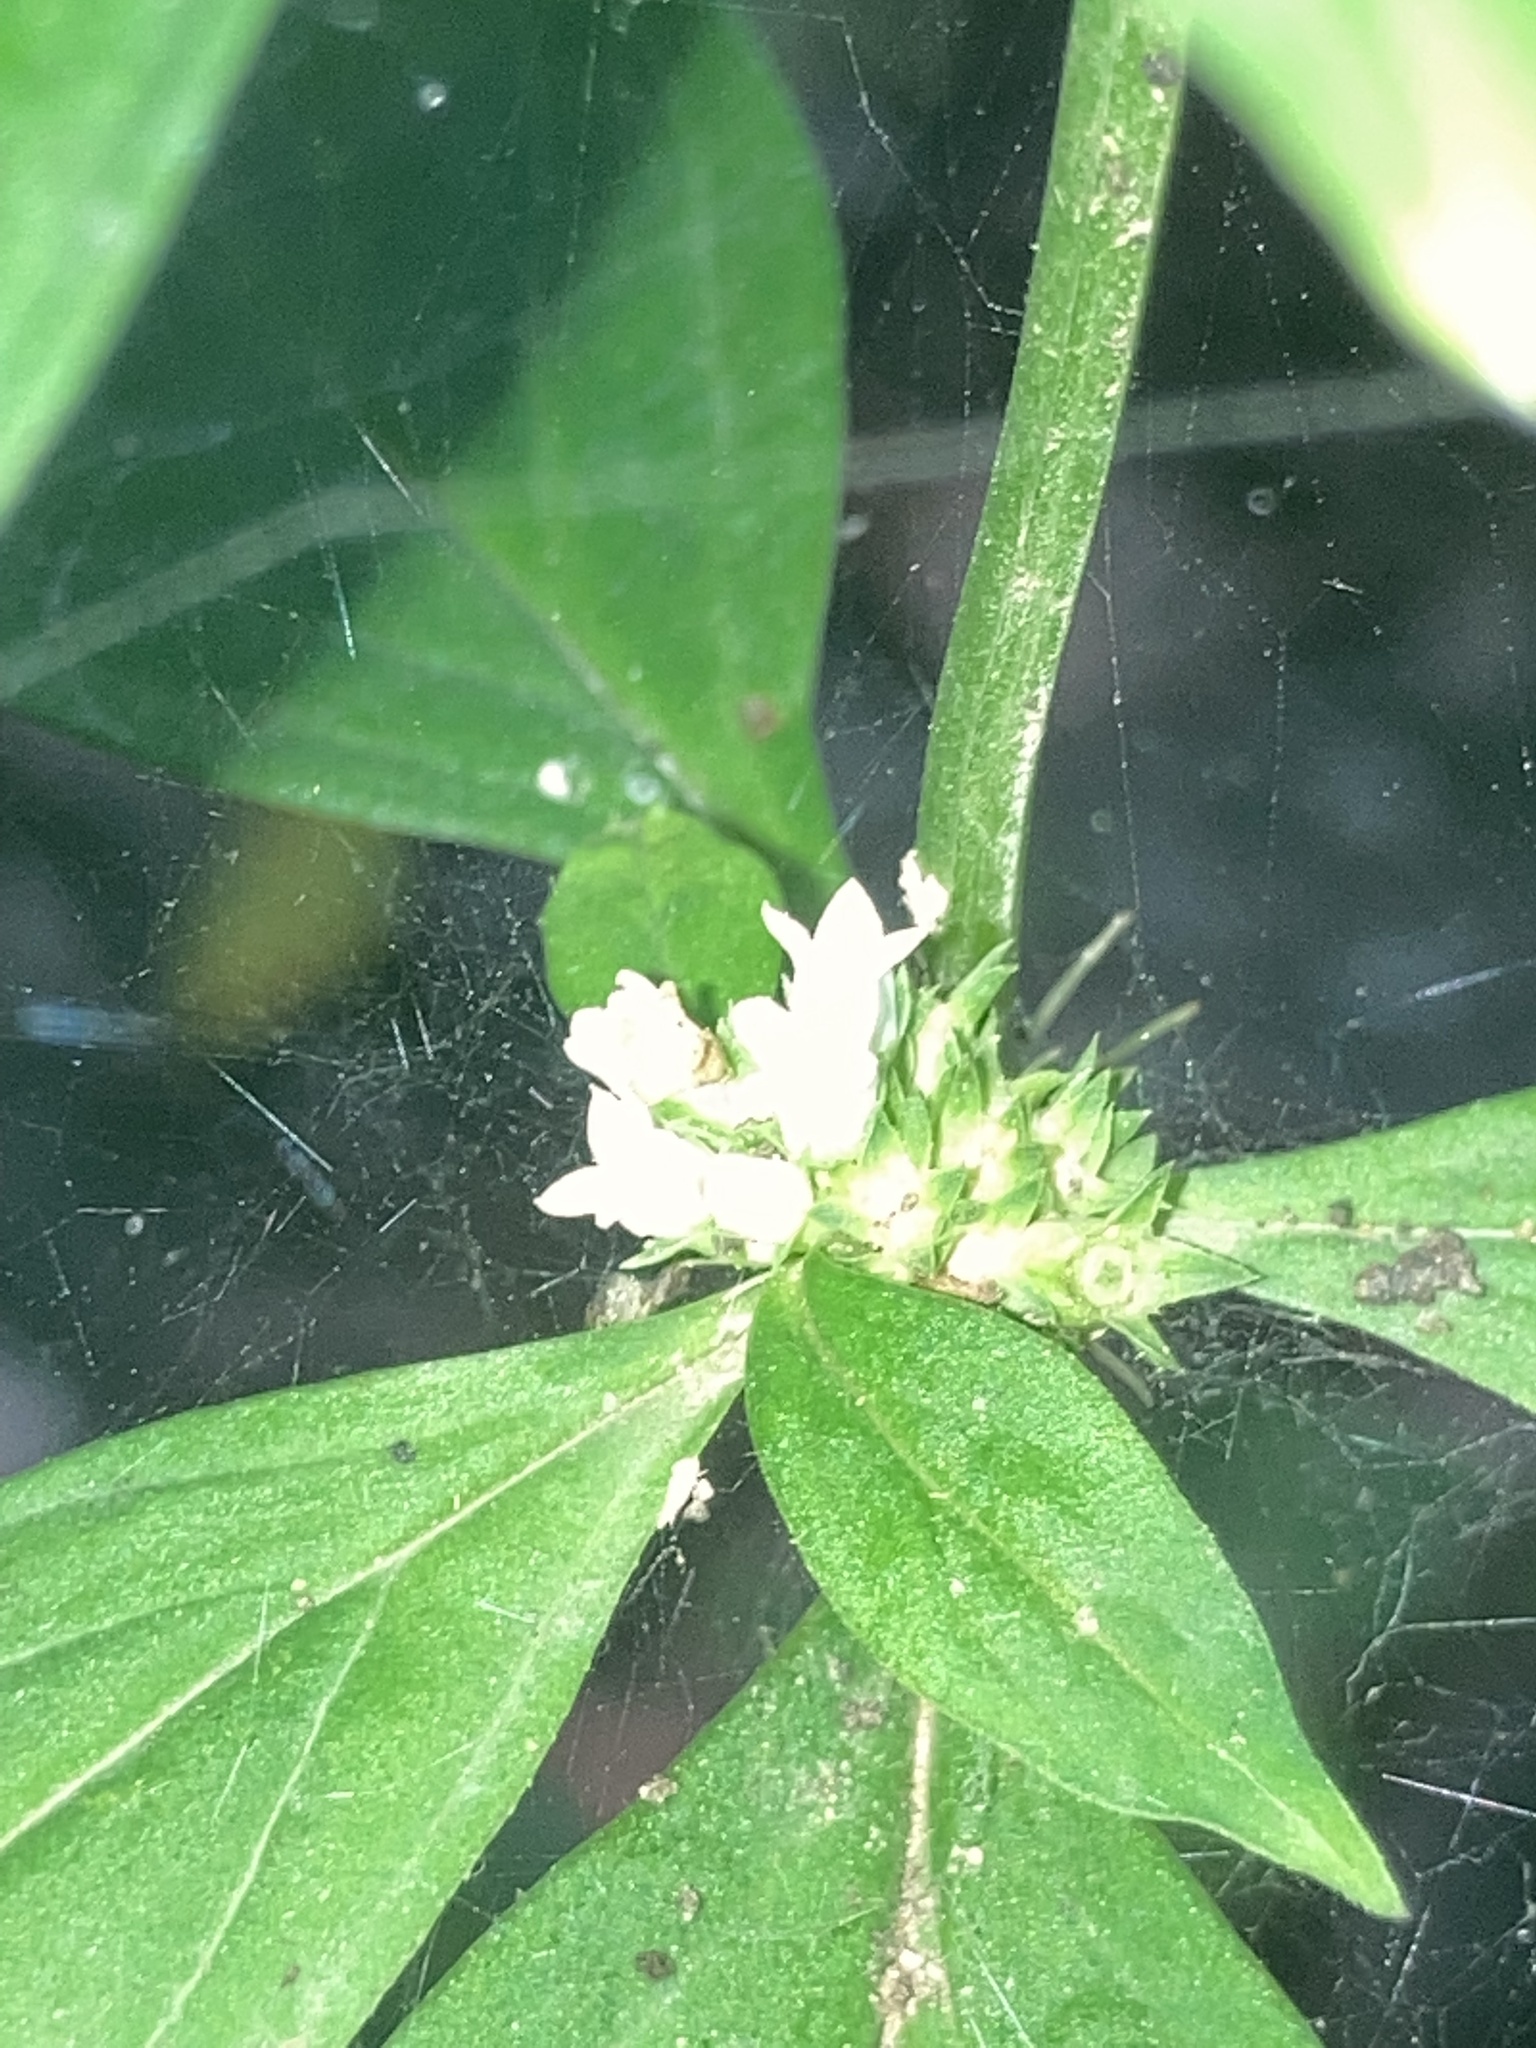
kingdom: Plantae
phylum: Tracheophyta
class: Magnoliopsida
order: Gentianales
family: Rubiaceae
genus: Spermacoce
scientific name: Spermacoce glabra
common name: Smooth buttonweed
